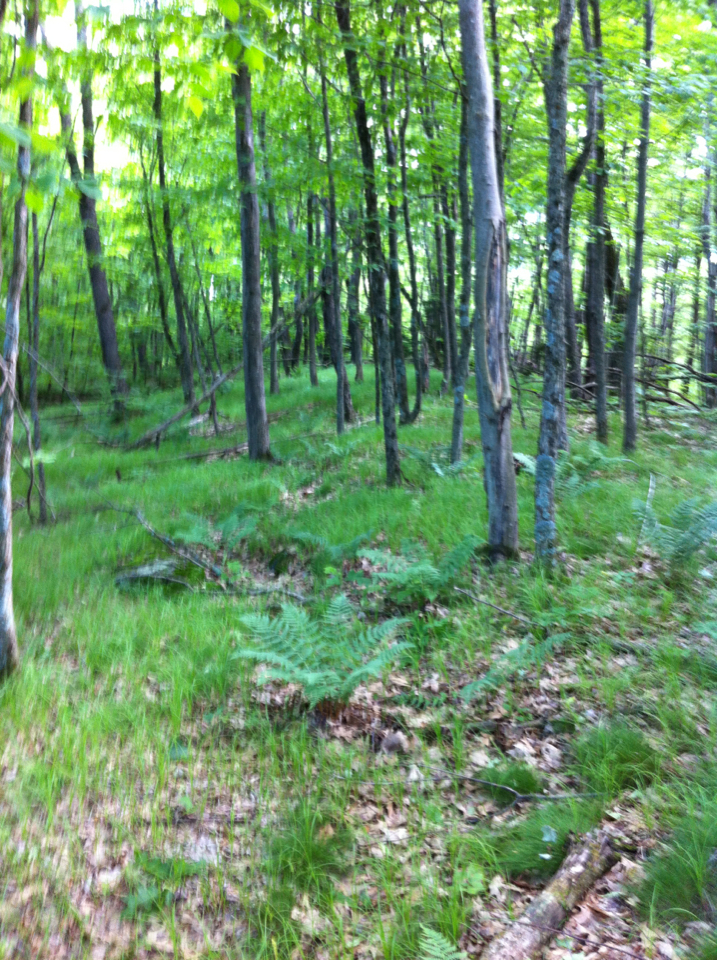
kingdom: Plantae
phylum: Tracheophyta
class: Liliopsida
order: Poales
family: Cyperaceae
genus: Carex
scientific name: Carex pensylvanica
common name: Common oak sedge
